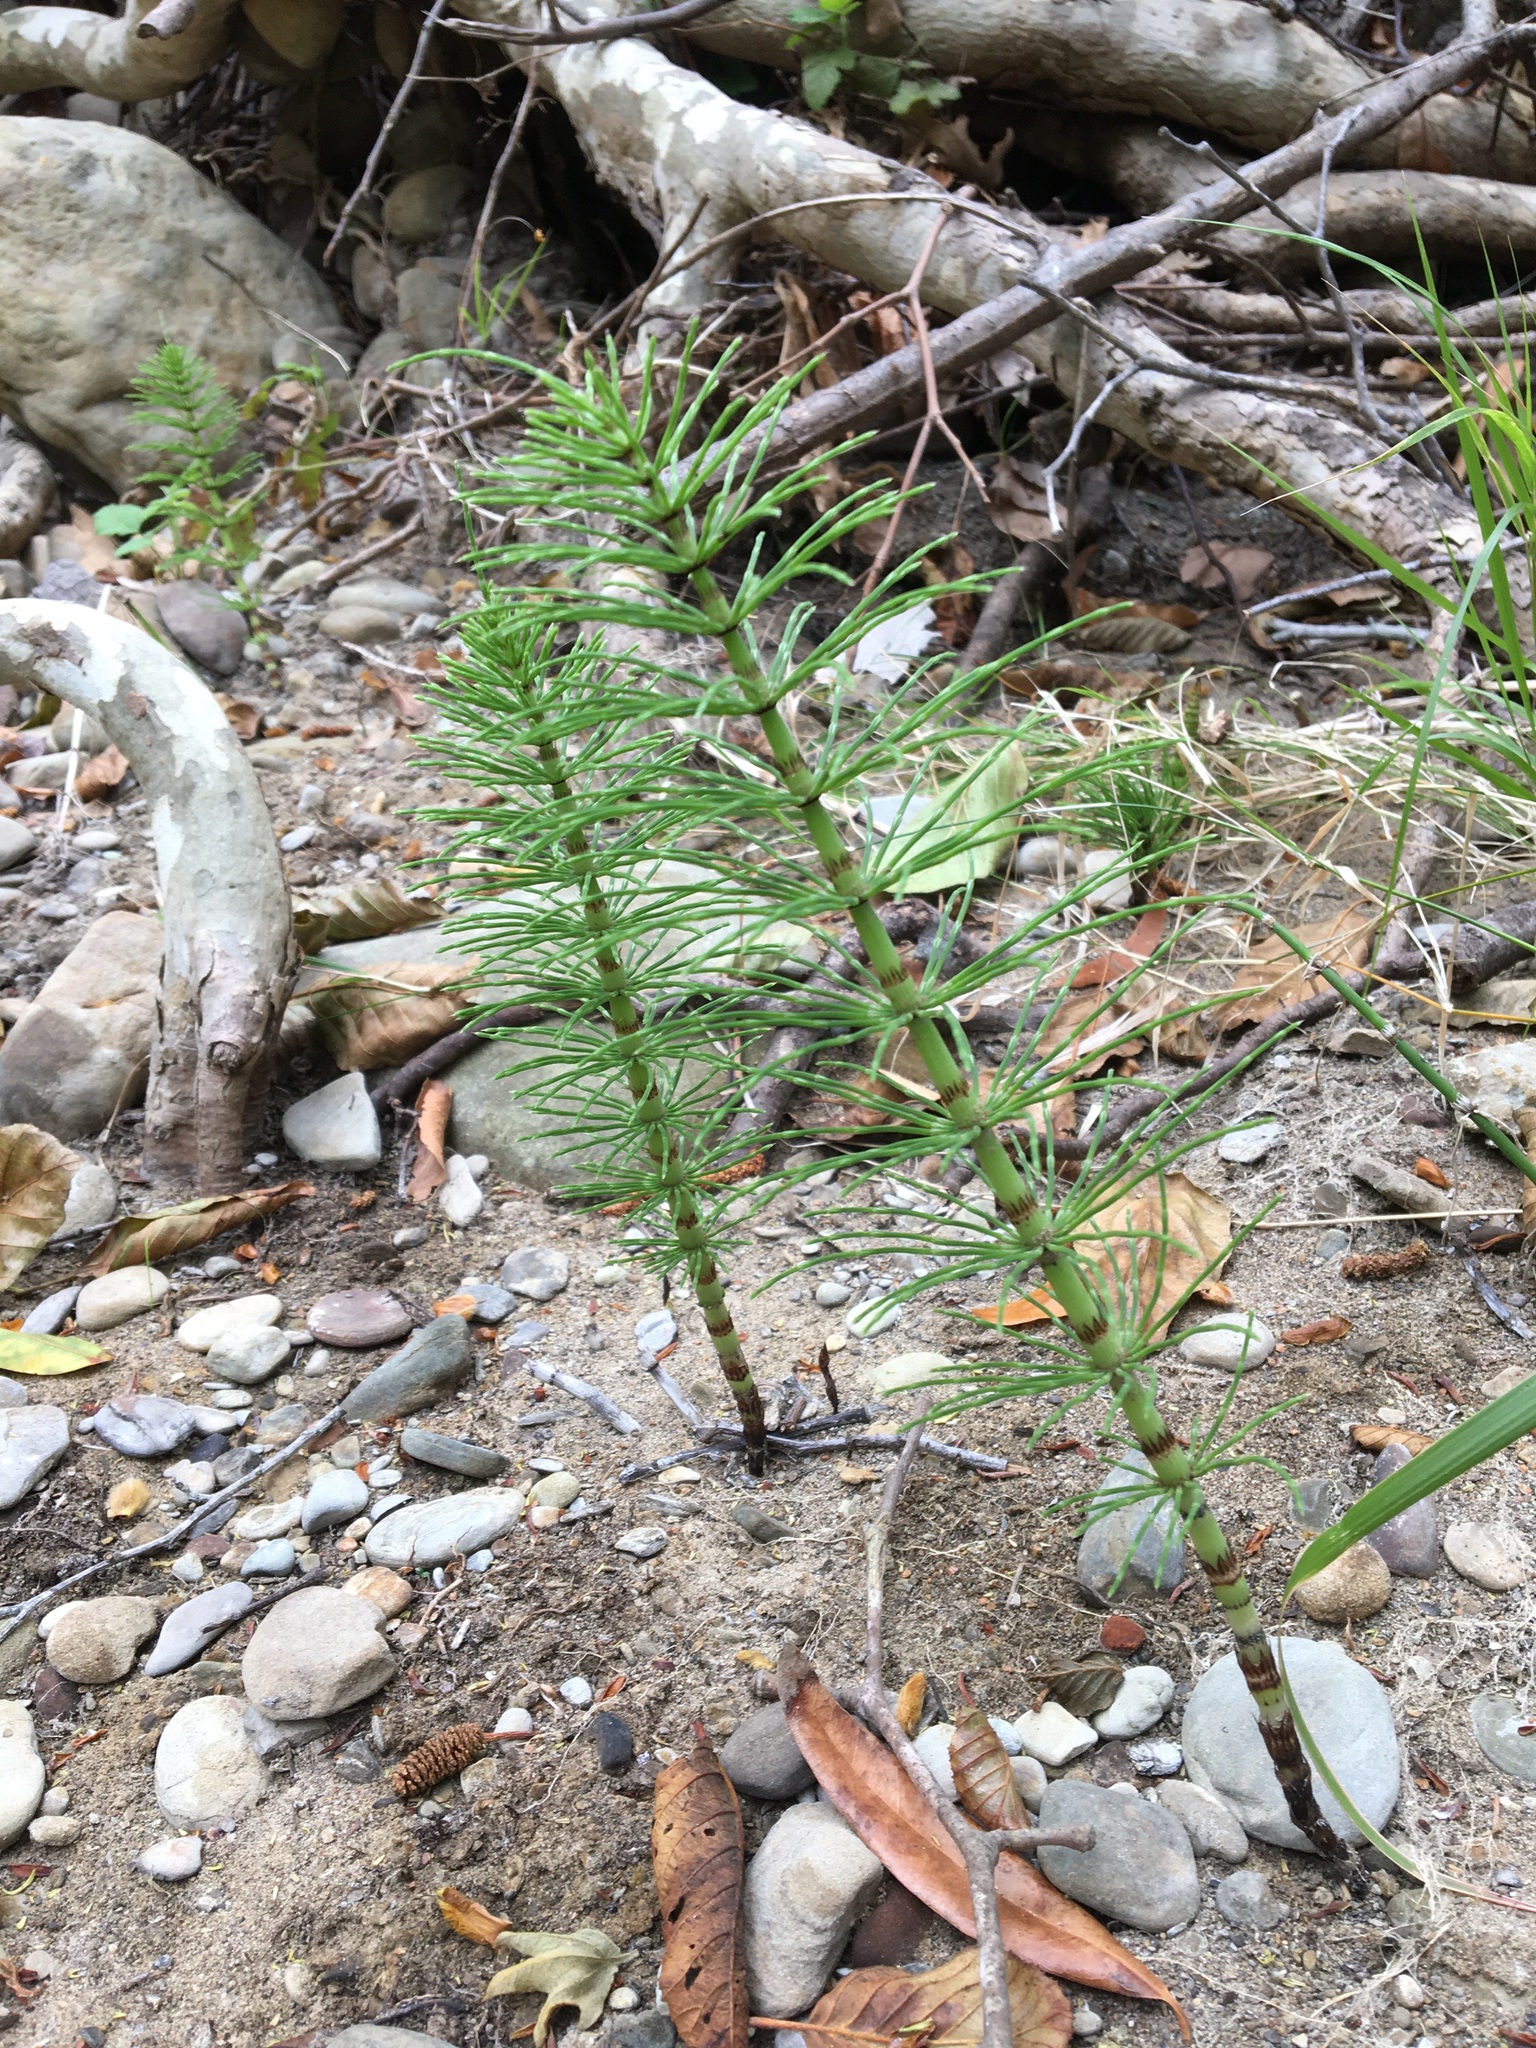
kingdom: Plantae
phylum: Tracheophyta
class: Polypodiopsida
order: Equisetales
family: Equisetaceae
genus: Equisetum
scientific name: Equisetum braunii
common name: Braun's horsetail
